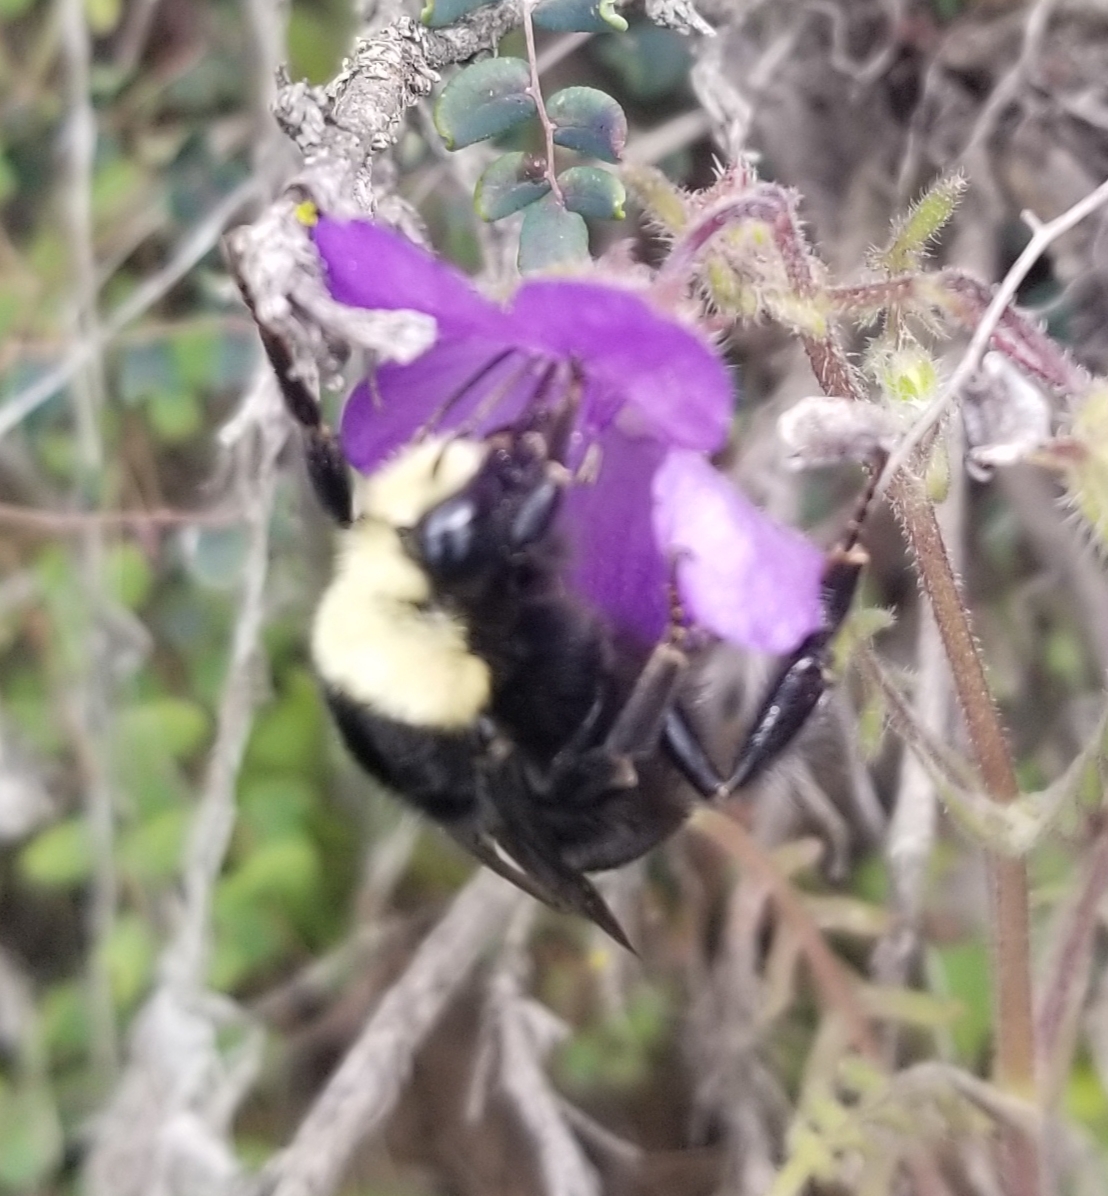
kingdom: Animalia
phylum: Arthropoda
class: Insecta
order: Hymenoptera
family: Apidae
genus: Bombus
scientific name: Bombus vosnesenskii
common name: Vosnesensky bumble bee
